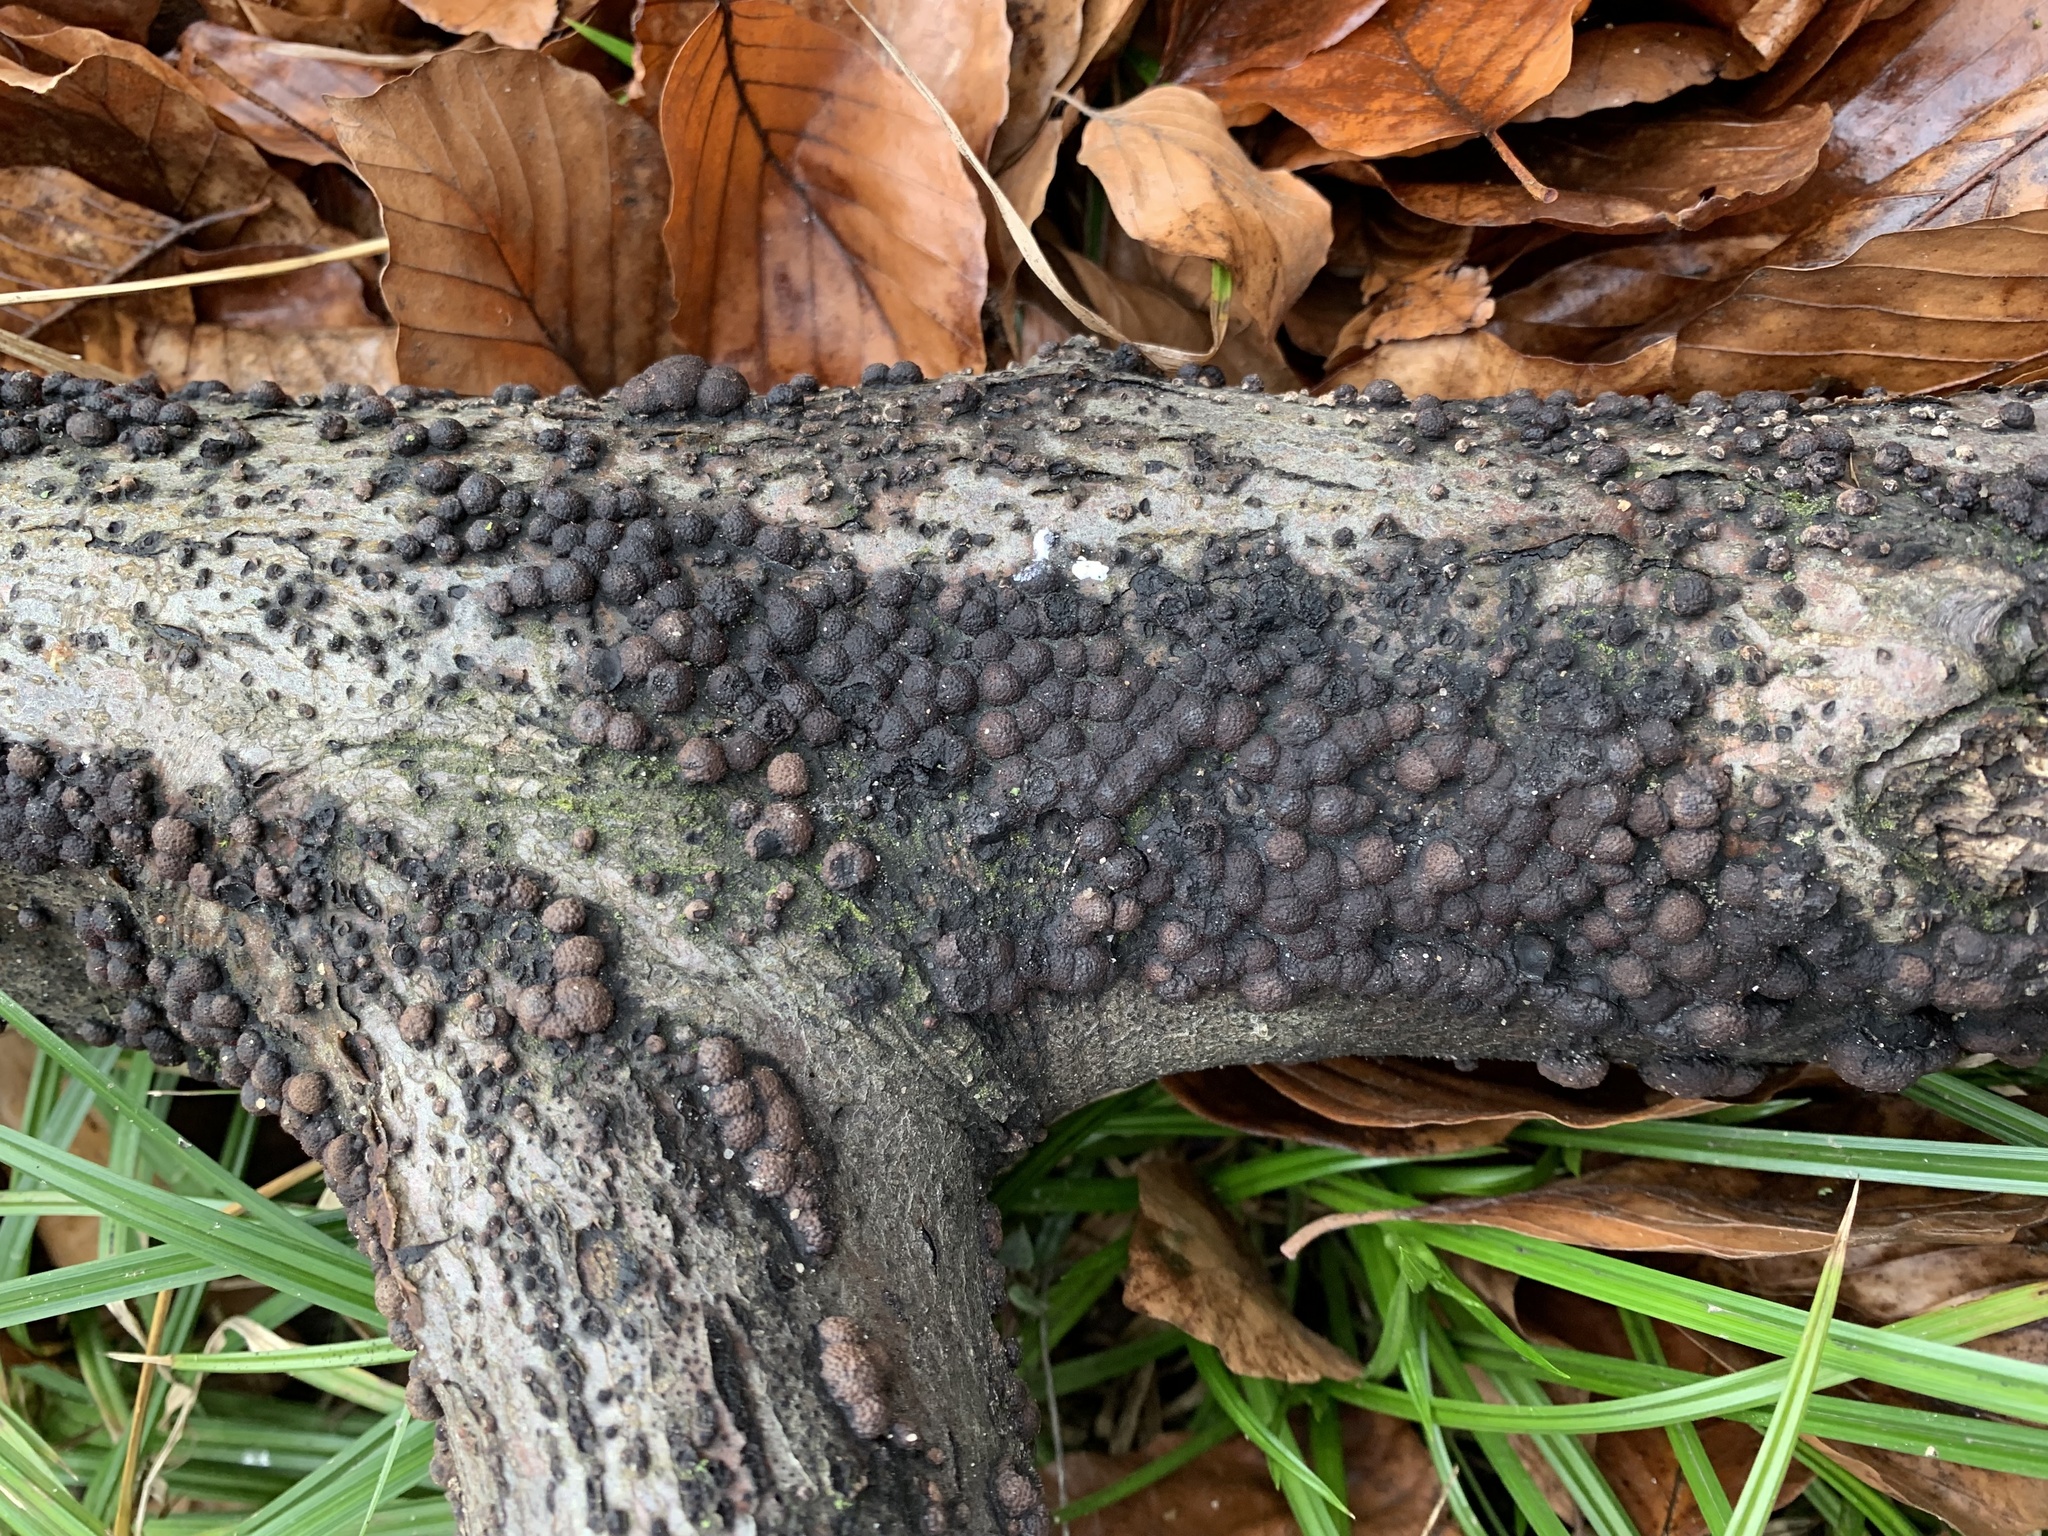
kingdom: Fungi
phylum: Ascomycota
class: Sordariomycetes
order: Xylariales
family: Hypoxylaceae
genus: Hypoxylon
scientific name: Hypoxylon fragiforme
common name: Beech woodwart
